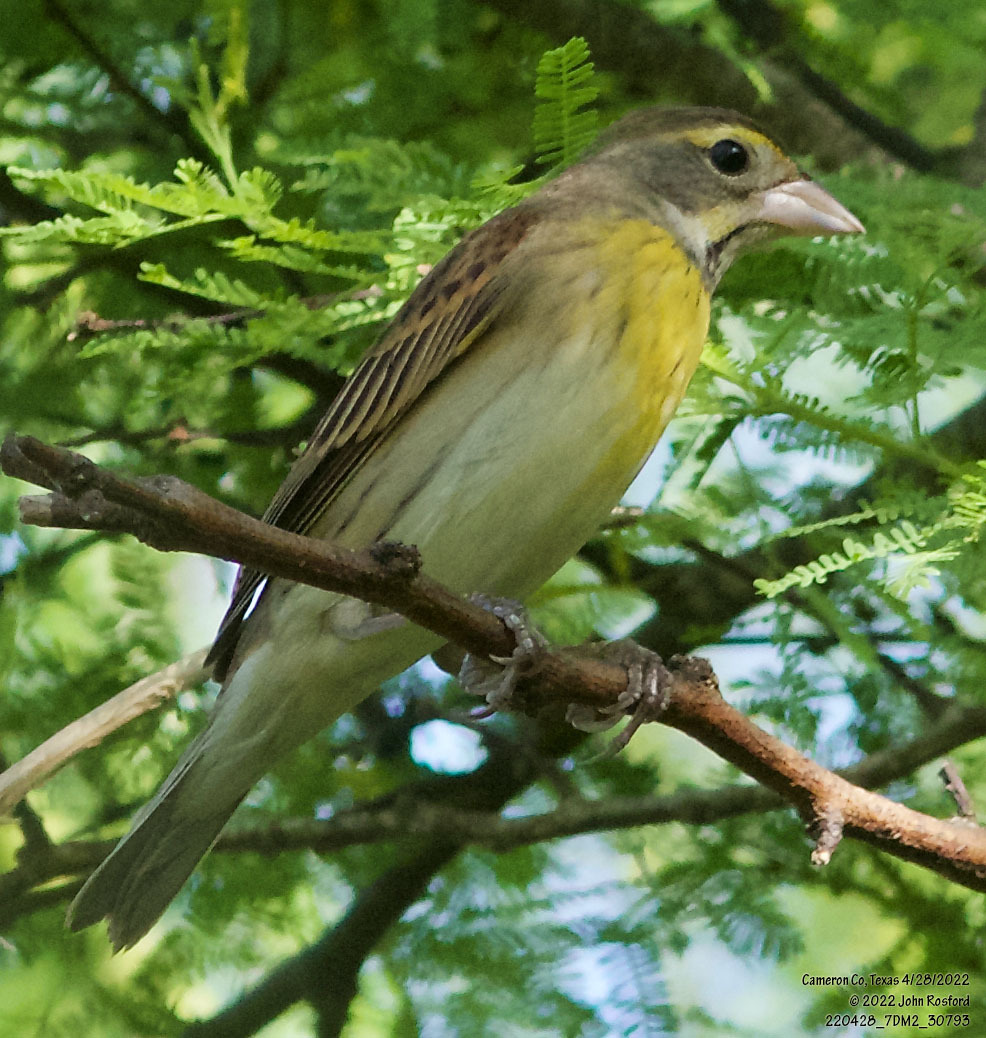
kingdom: Animalia
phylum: Chordata
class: Aves
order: Passeriformes
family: Cardinalidae
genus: Spiza
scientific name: Spiza americana
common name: Dickcissel
